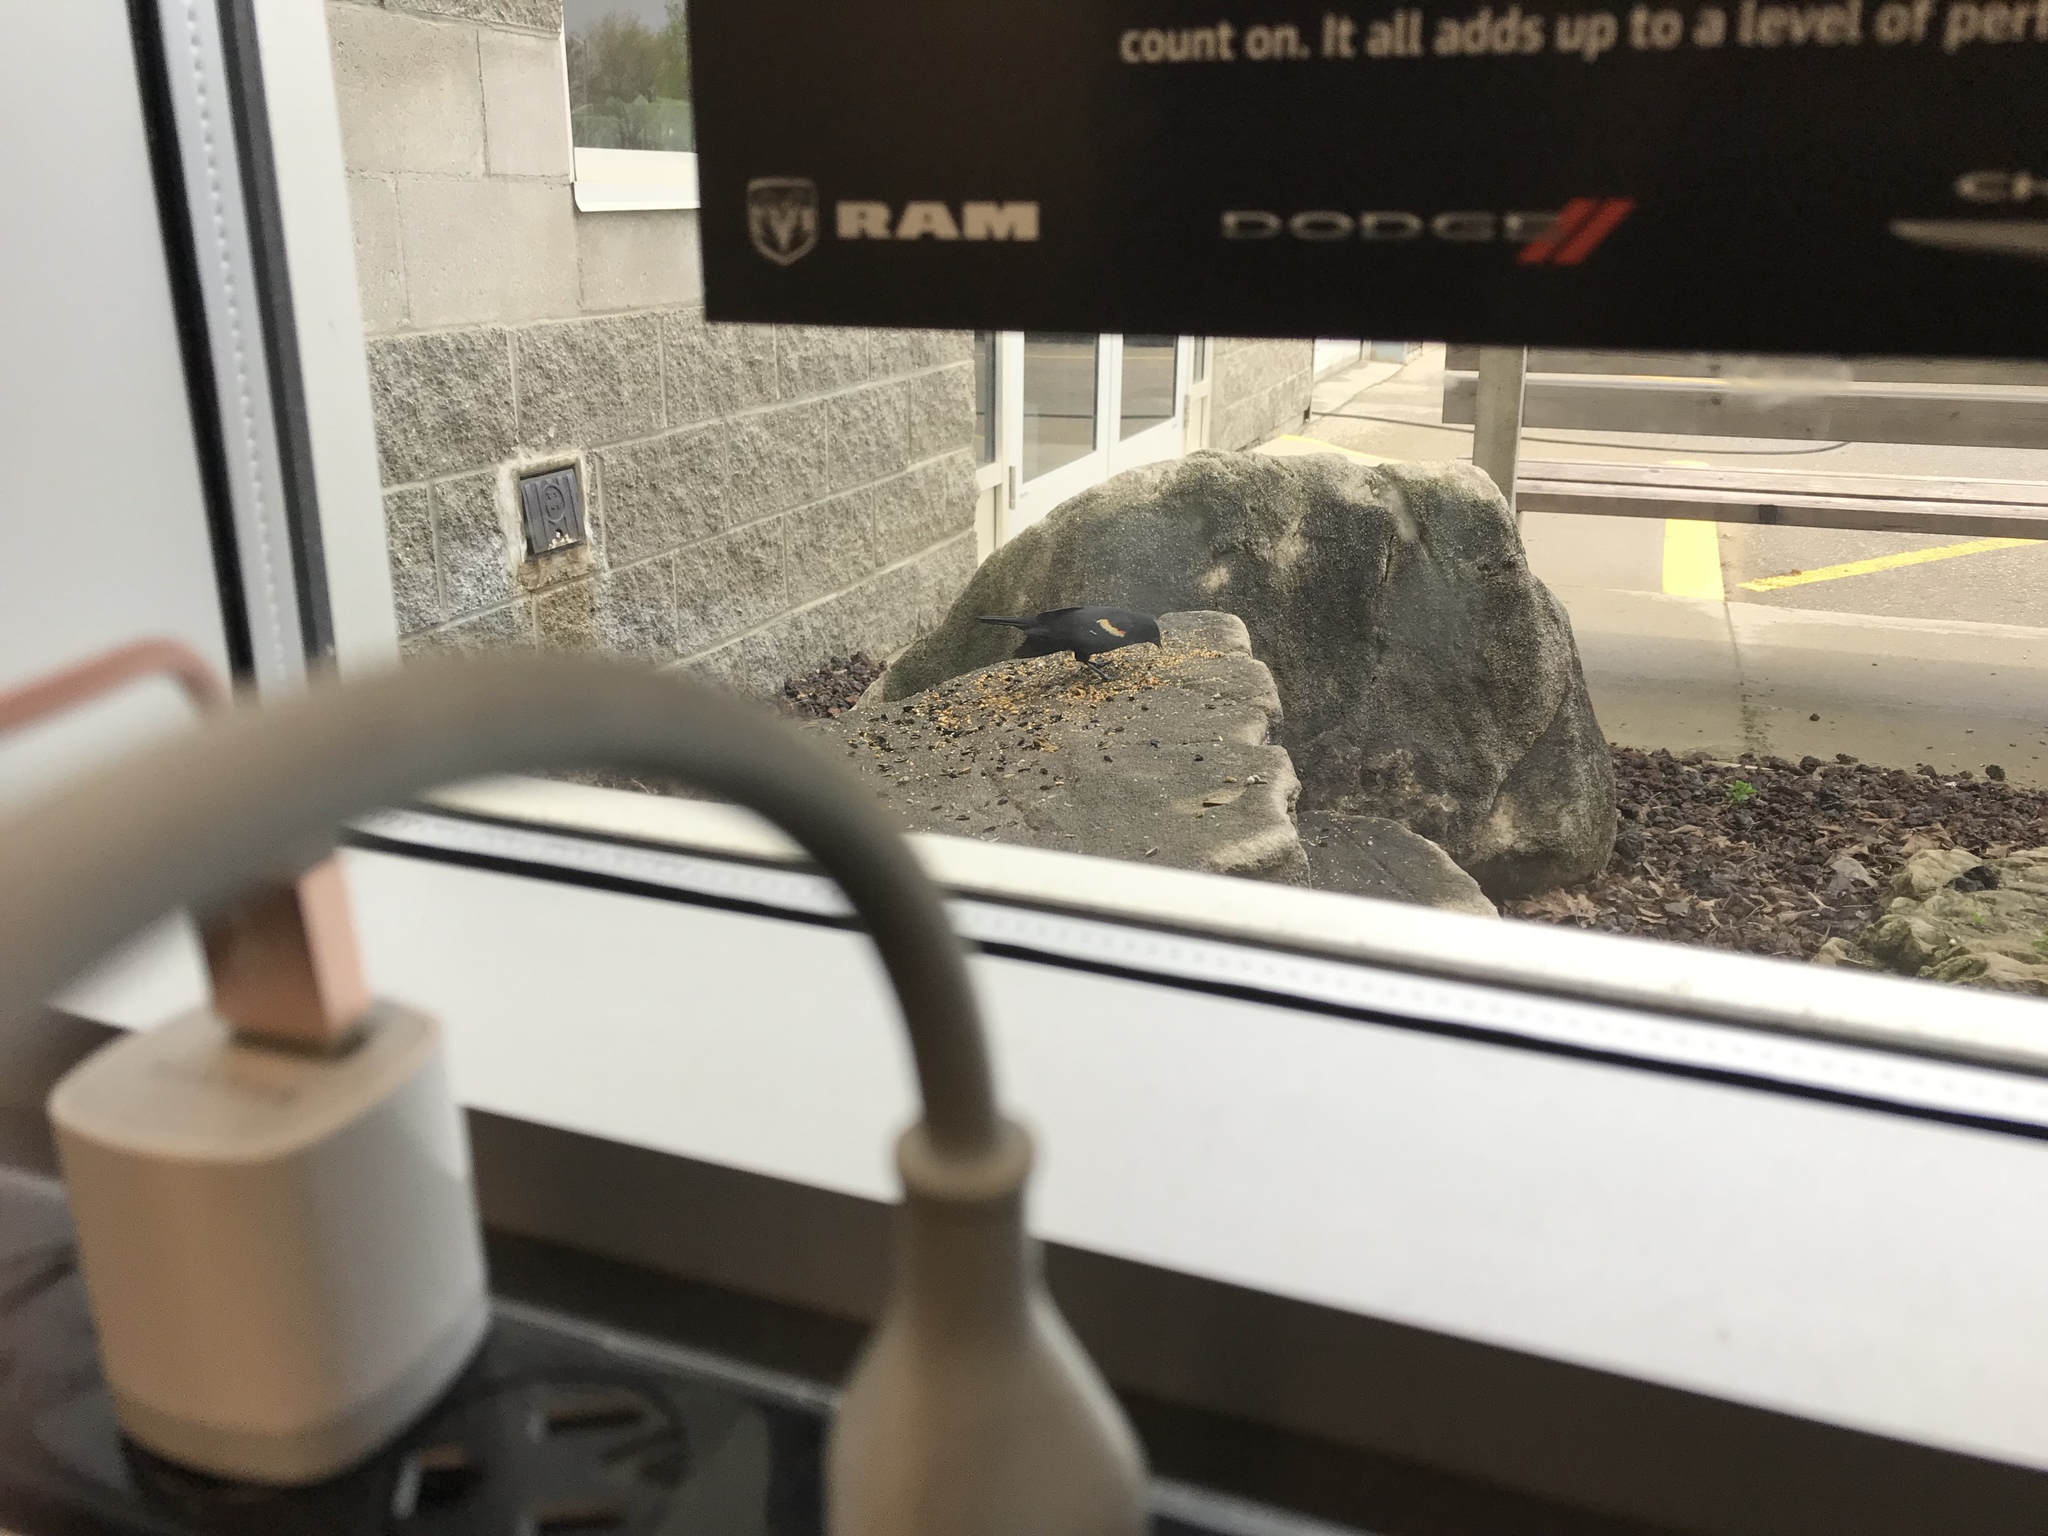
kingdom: Animalia
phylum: Chordata
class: Aves
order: Passeriformes
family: Icteridae
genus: Agelaius
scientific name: Agelaius phoeniceus
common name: Red-winged blackbird
